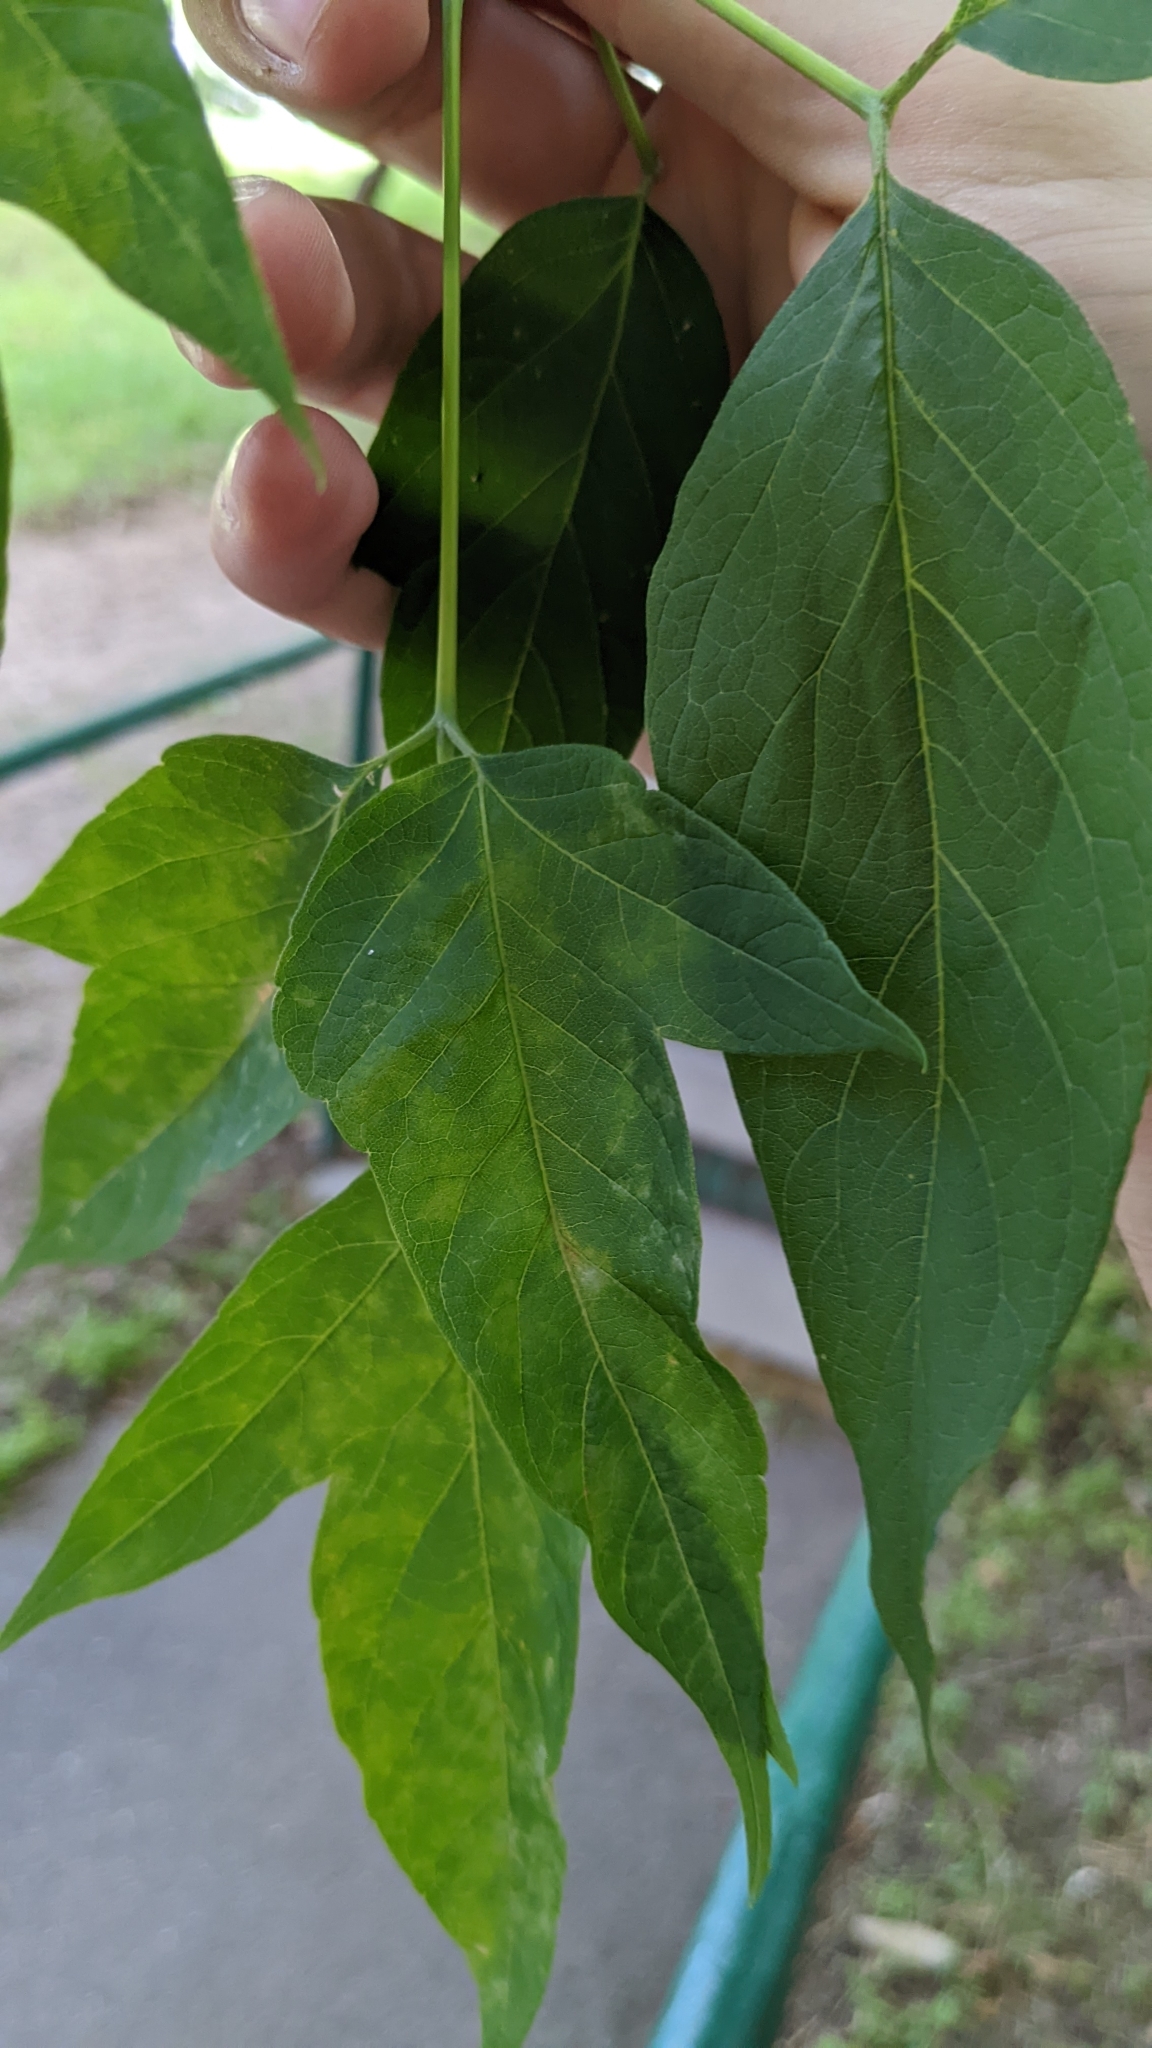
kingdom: Plantae
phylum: Tracheophyta
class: Magnoliopsida
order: Sapindales
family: Sapindaceae
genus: Acer
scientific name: Acer negundo
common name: Ashleaf maple
